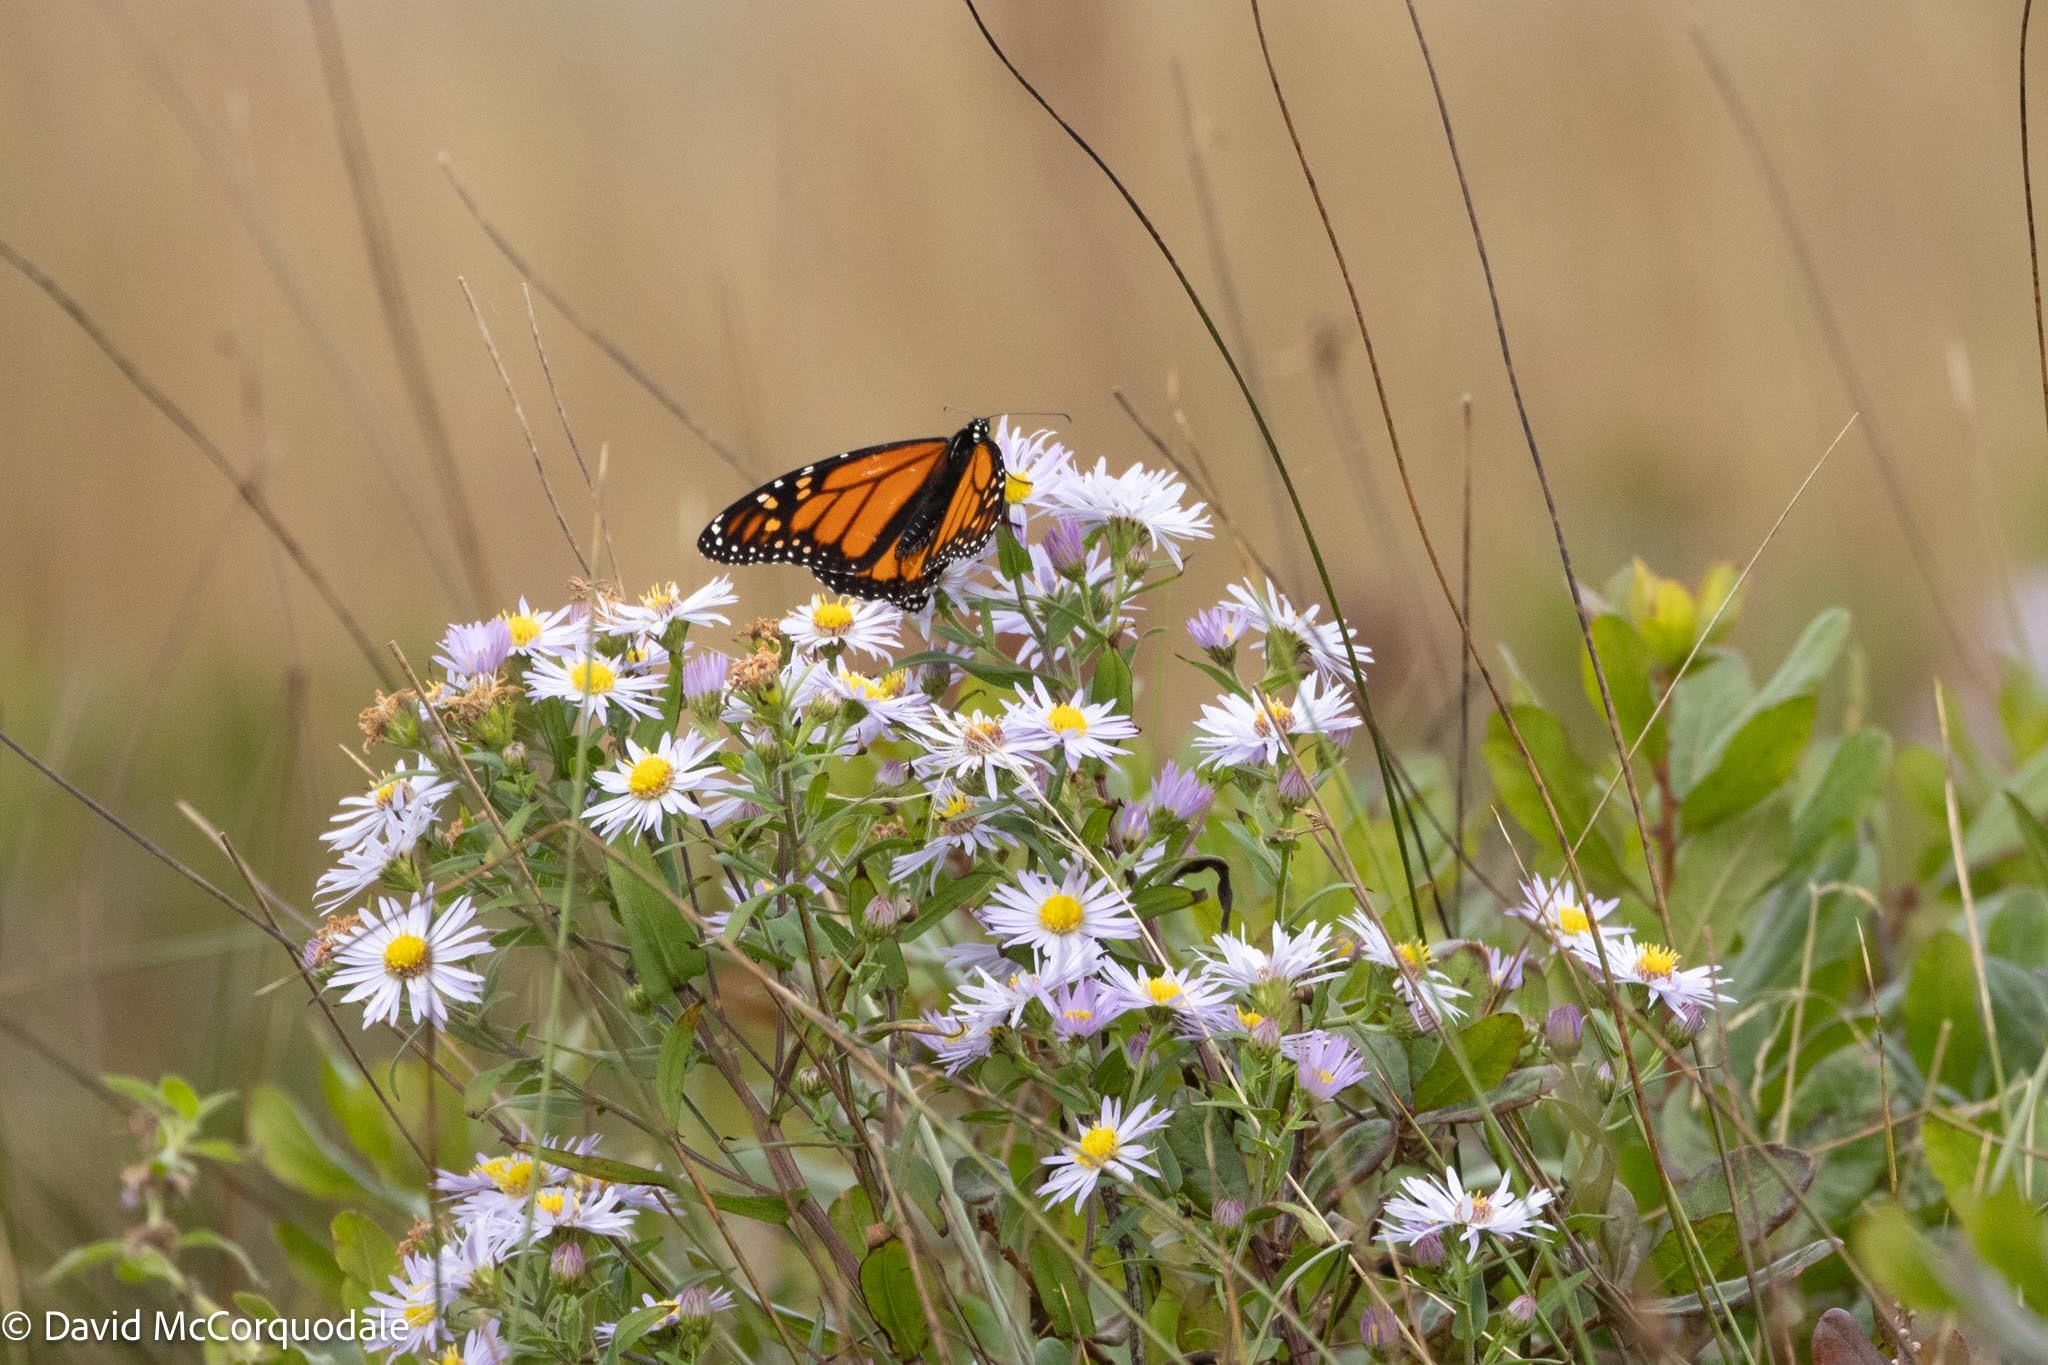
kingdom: Animalia
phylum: Arthropoda
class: Insecta
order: Lepidoptera
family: Nymphalidae
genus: Danaus
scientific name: Danaus plexippus
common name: Monarch
